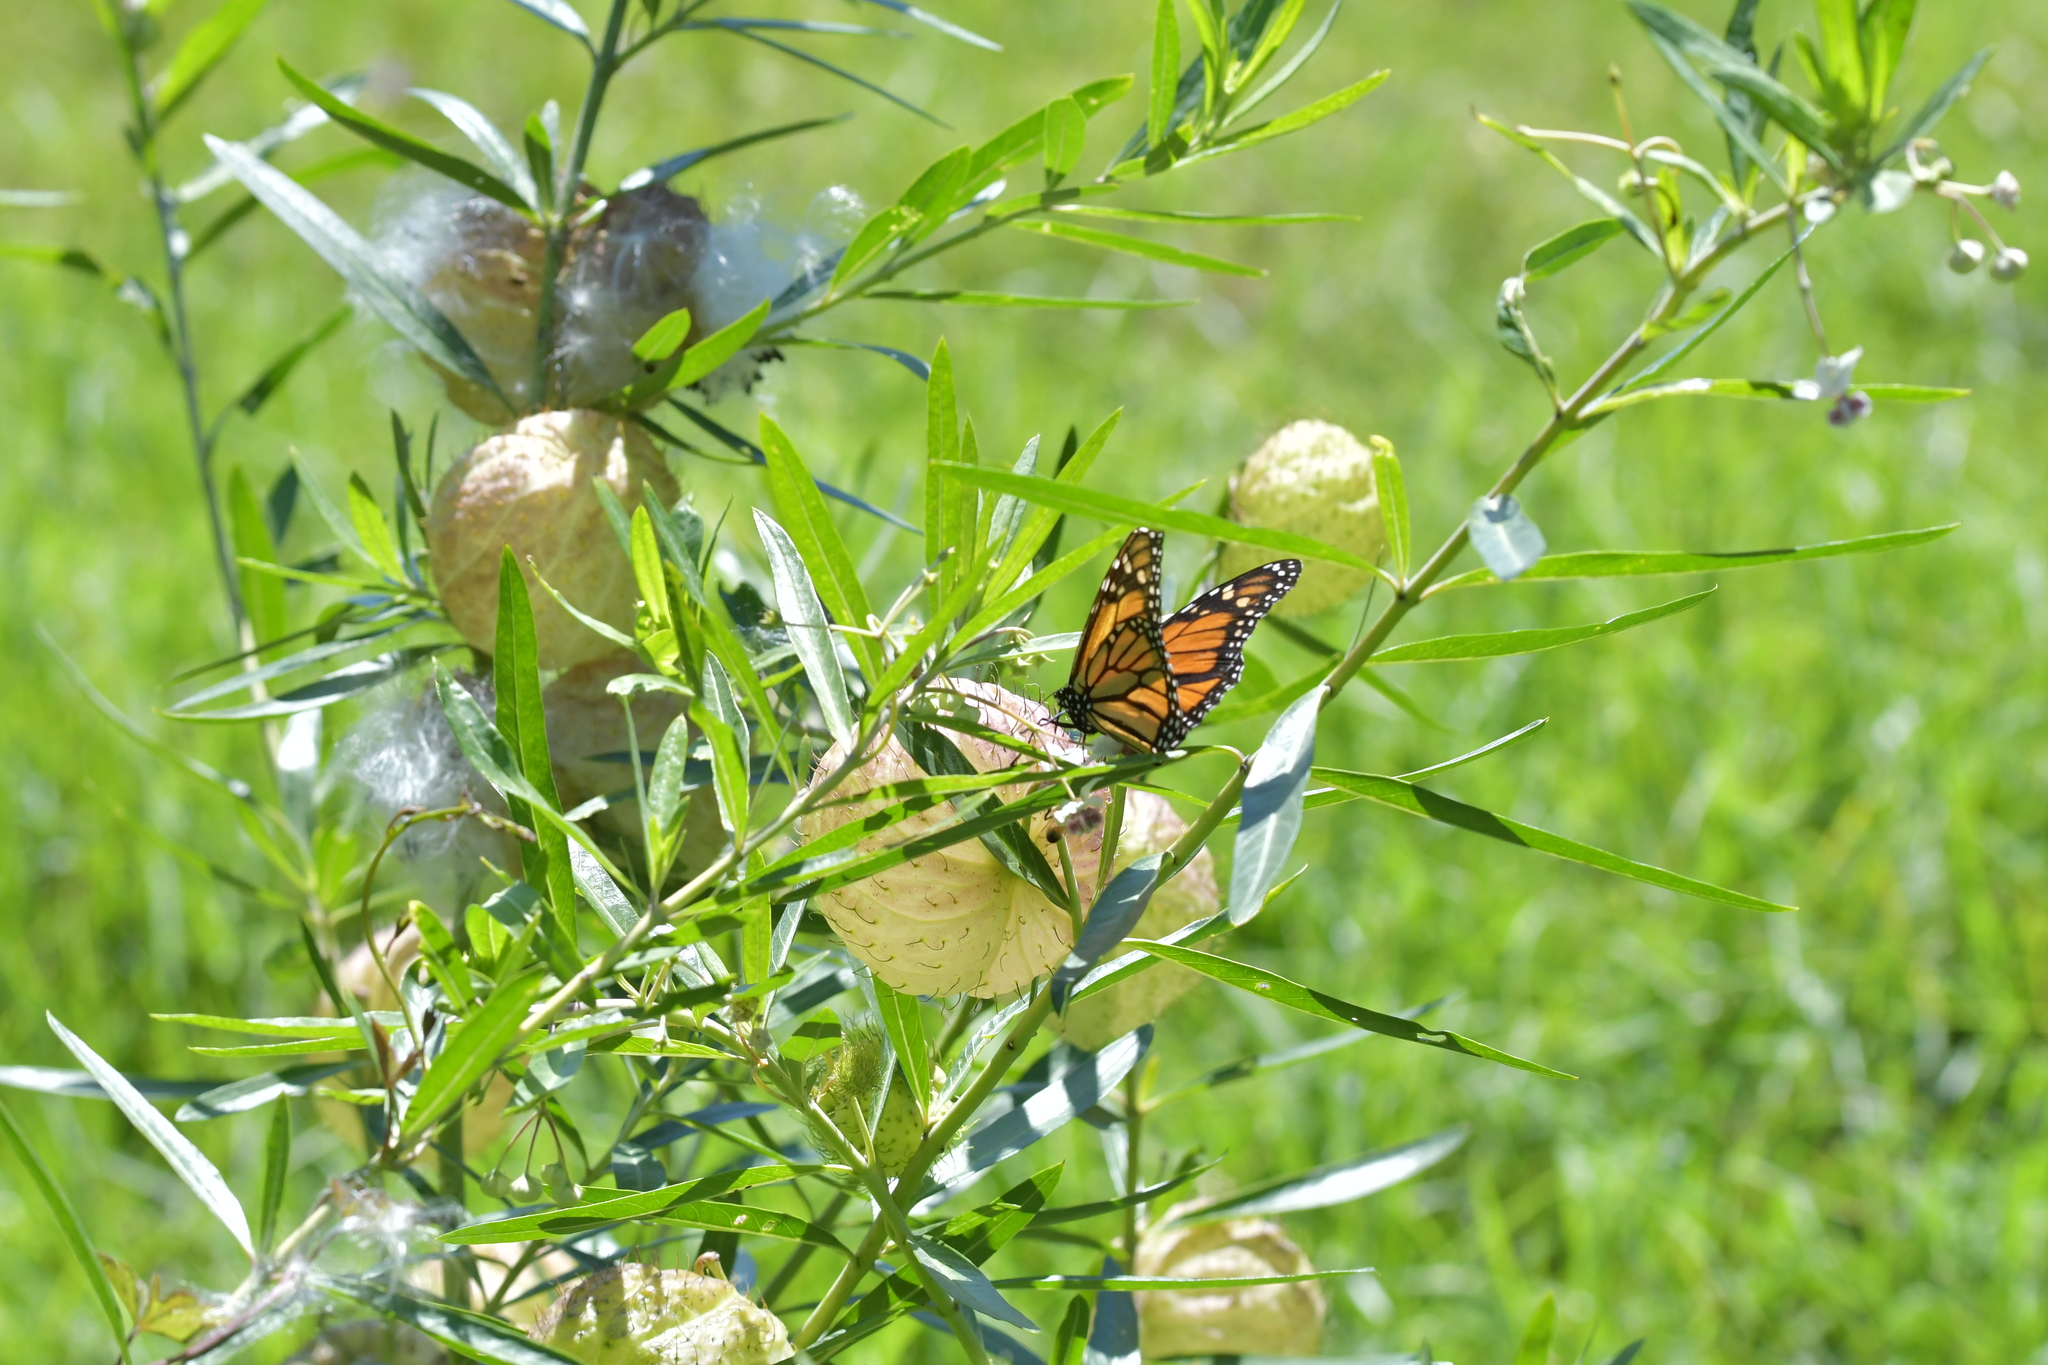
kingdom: Animalia
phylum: Arthropoda
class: Insecta
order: Lepidoptera
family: Nymphalidae
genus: Danaus
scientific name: Danaus plexippus
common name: Monarch
